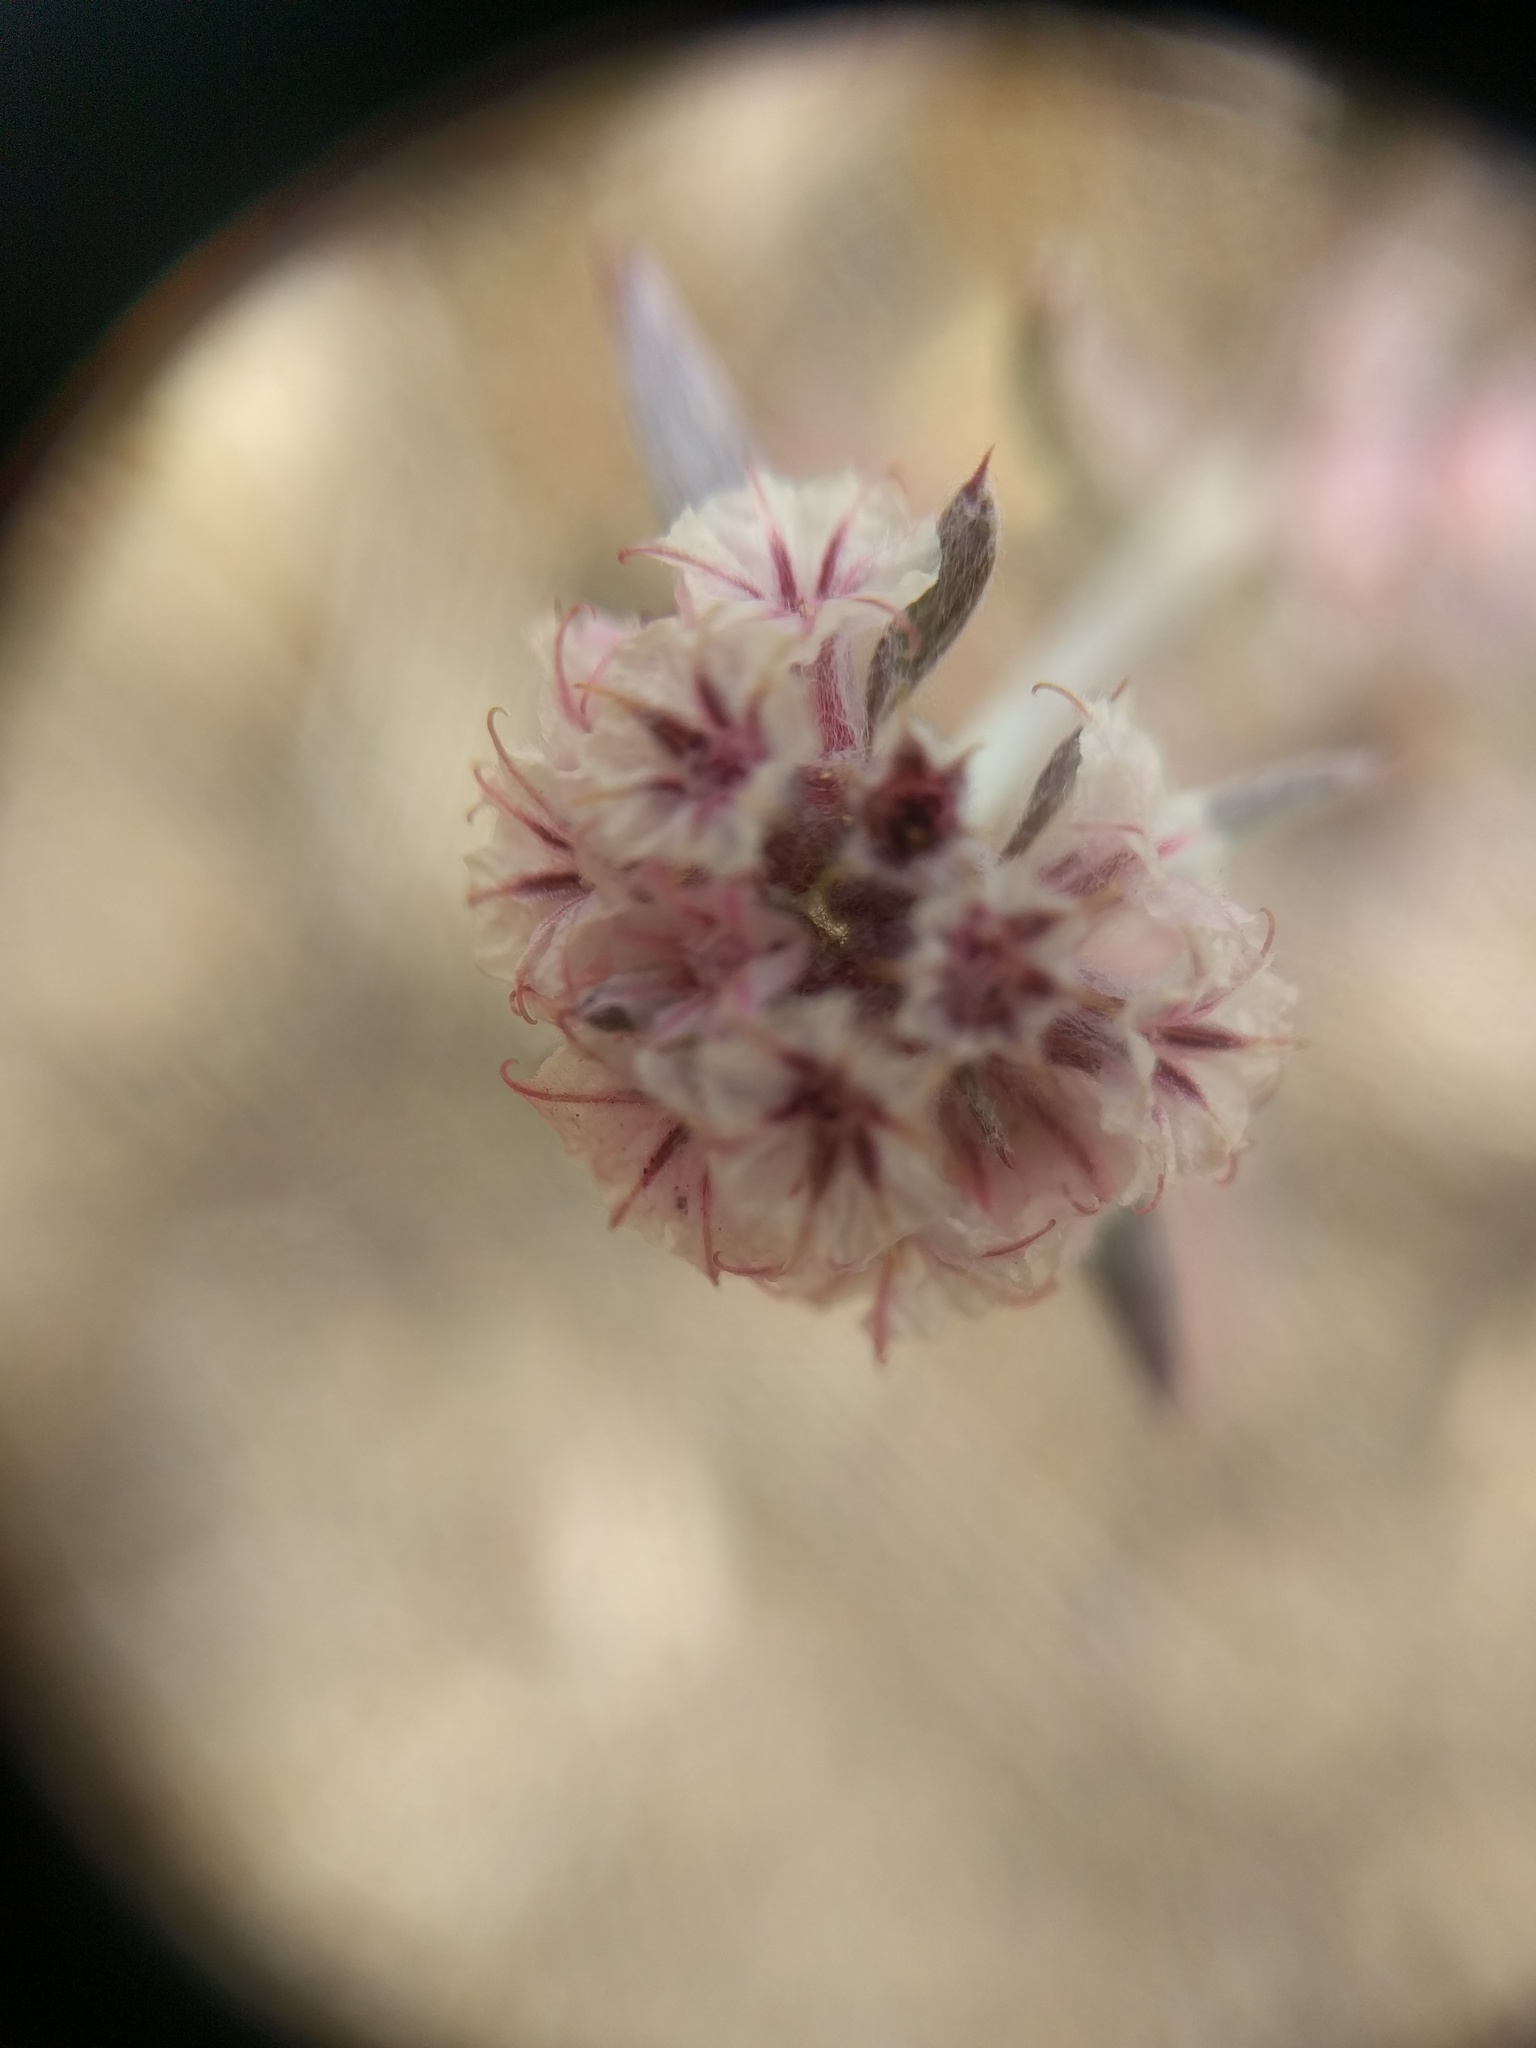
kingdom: Plantae
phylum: Tracheophyta
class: Magnoliopsida
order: Caryophyllales
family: Polygonaceae
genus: Chorizanthe
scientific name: Chorizanthe membranacea
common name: Pink spineflower
